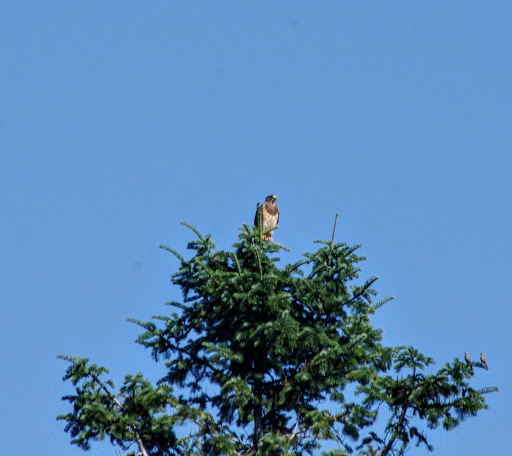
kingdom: Animalia
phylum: Chordata
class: Aves
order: Accipitriformes
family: Accipitridae
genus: Buteo
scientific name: Buteo swainsoni
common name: Swainson's hawk
